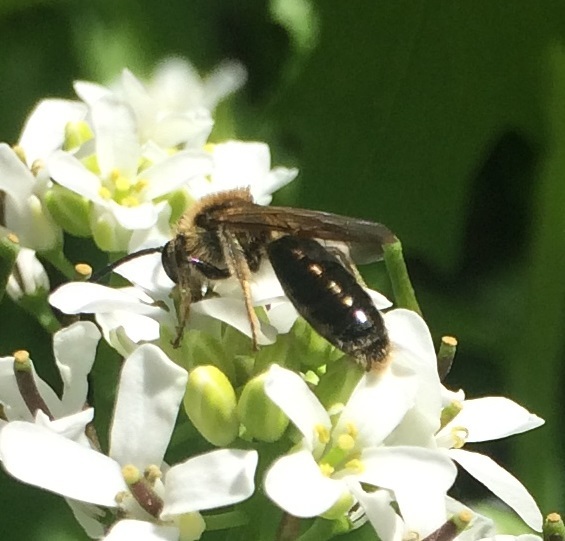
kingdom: Animalia
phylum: Arthropoda
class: Insecta
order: Hymenoptera
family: Andrenidae
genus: Andrena
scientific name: Andrena
